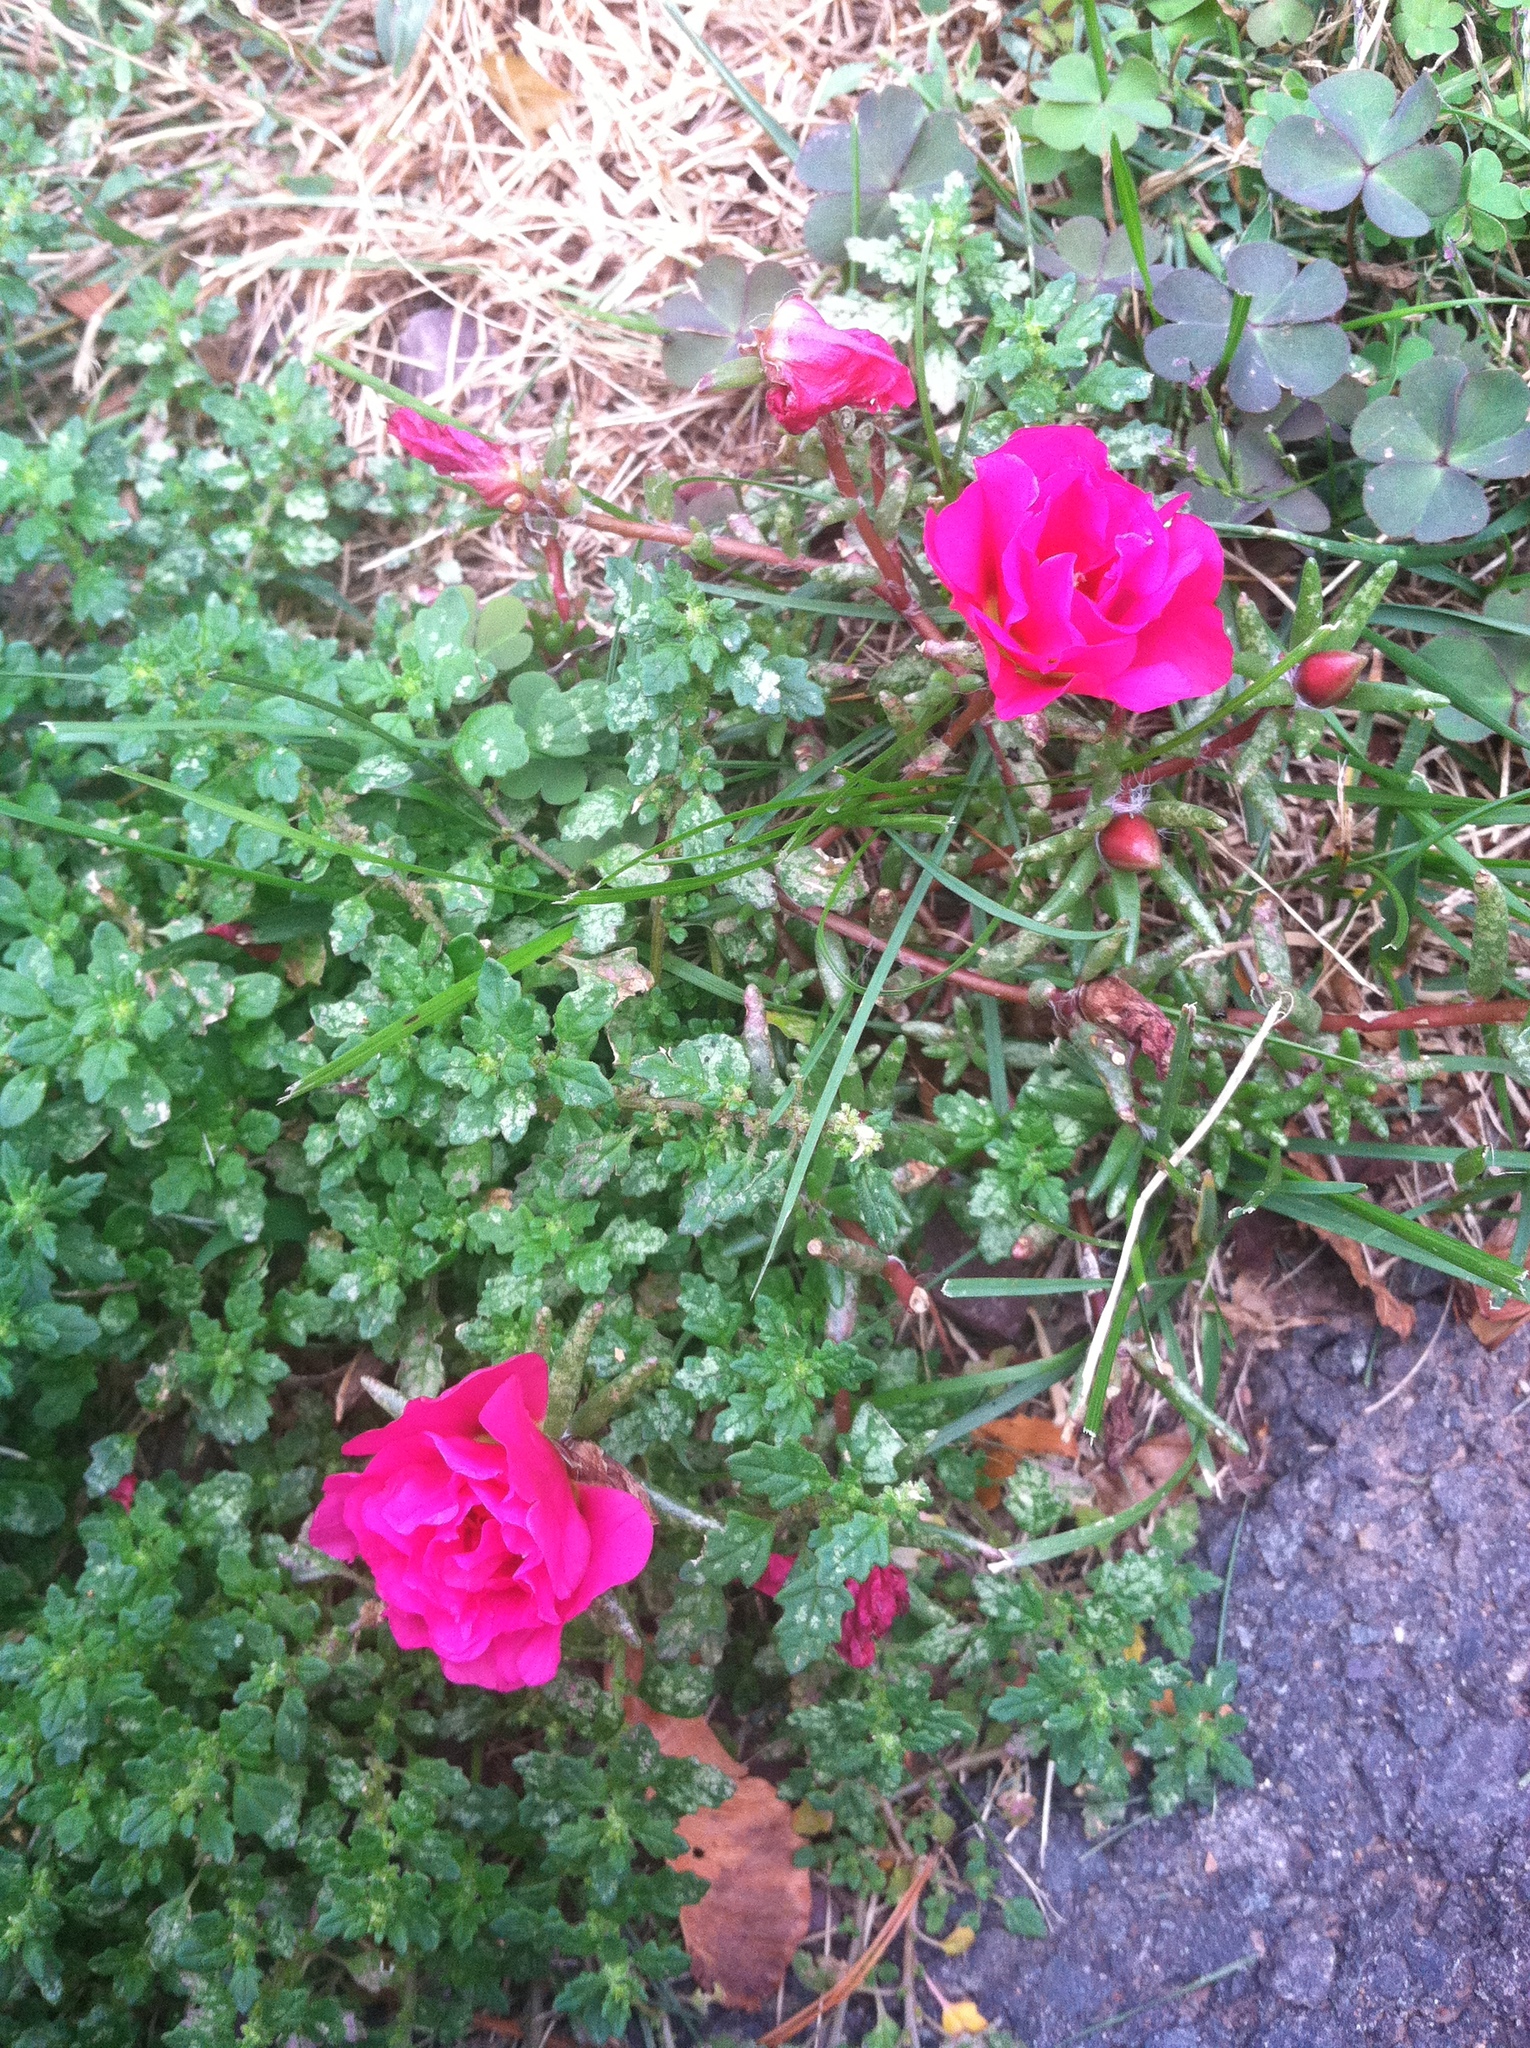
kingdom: Plantae
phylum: Tracheophyta
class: Magnoliopsida
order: Caryophyllales
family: Portulacaceae
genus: Portulaca
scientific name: Portulaca grandiflora
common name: Moss-rose
